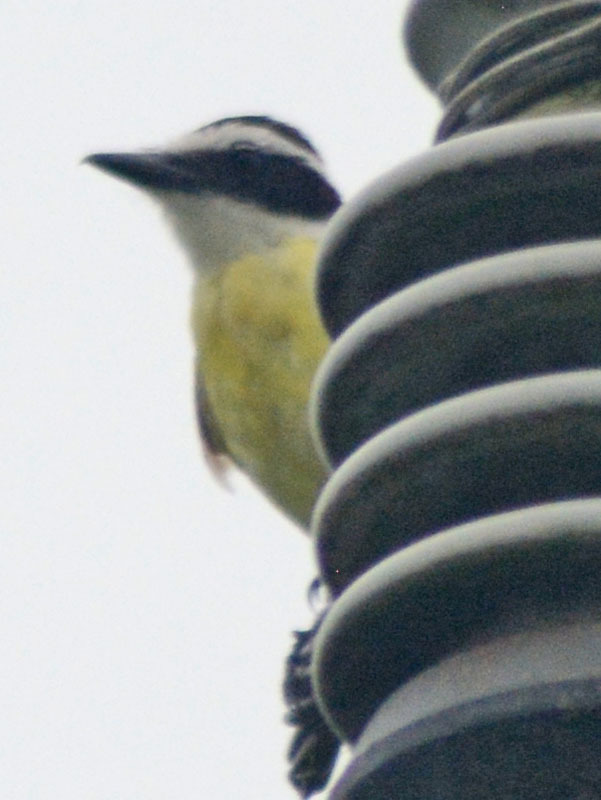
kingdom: Animalia
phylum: Chordata
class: Aves
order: Passeriformes
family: Tyrannidae
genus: Pitangus
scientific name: Pitangus sulphuratus
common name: Great kiskadee
